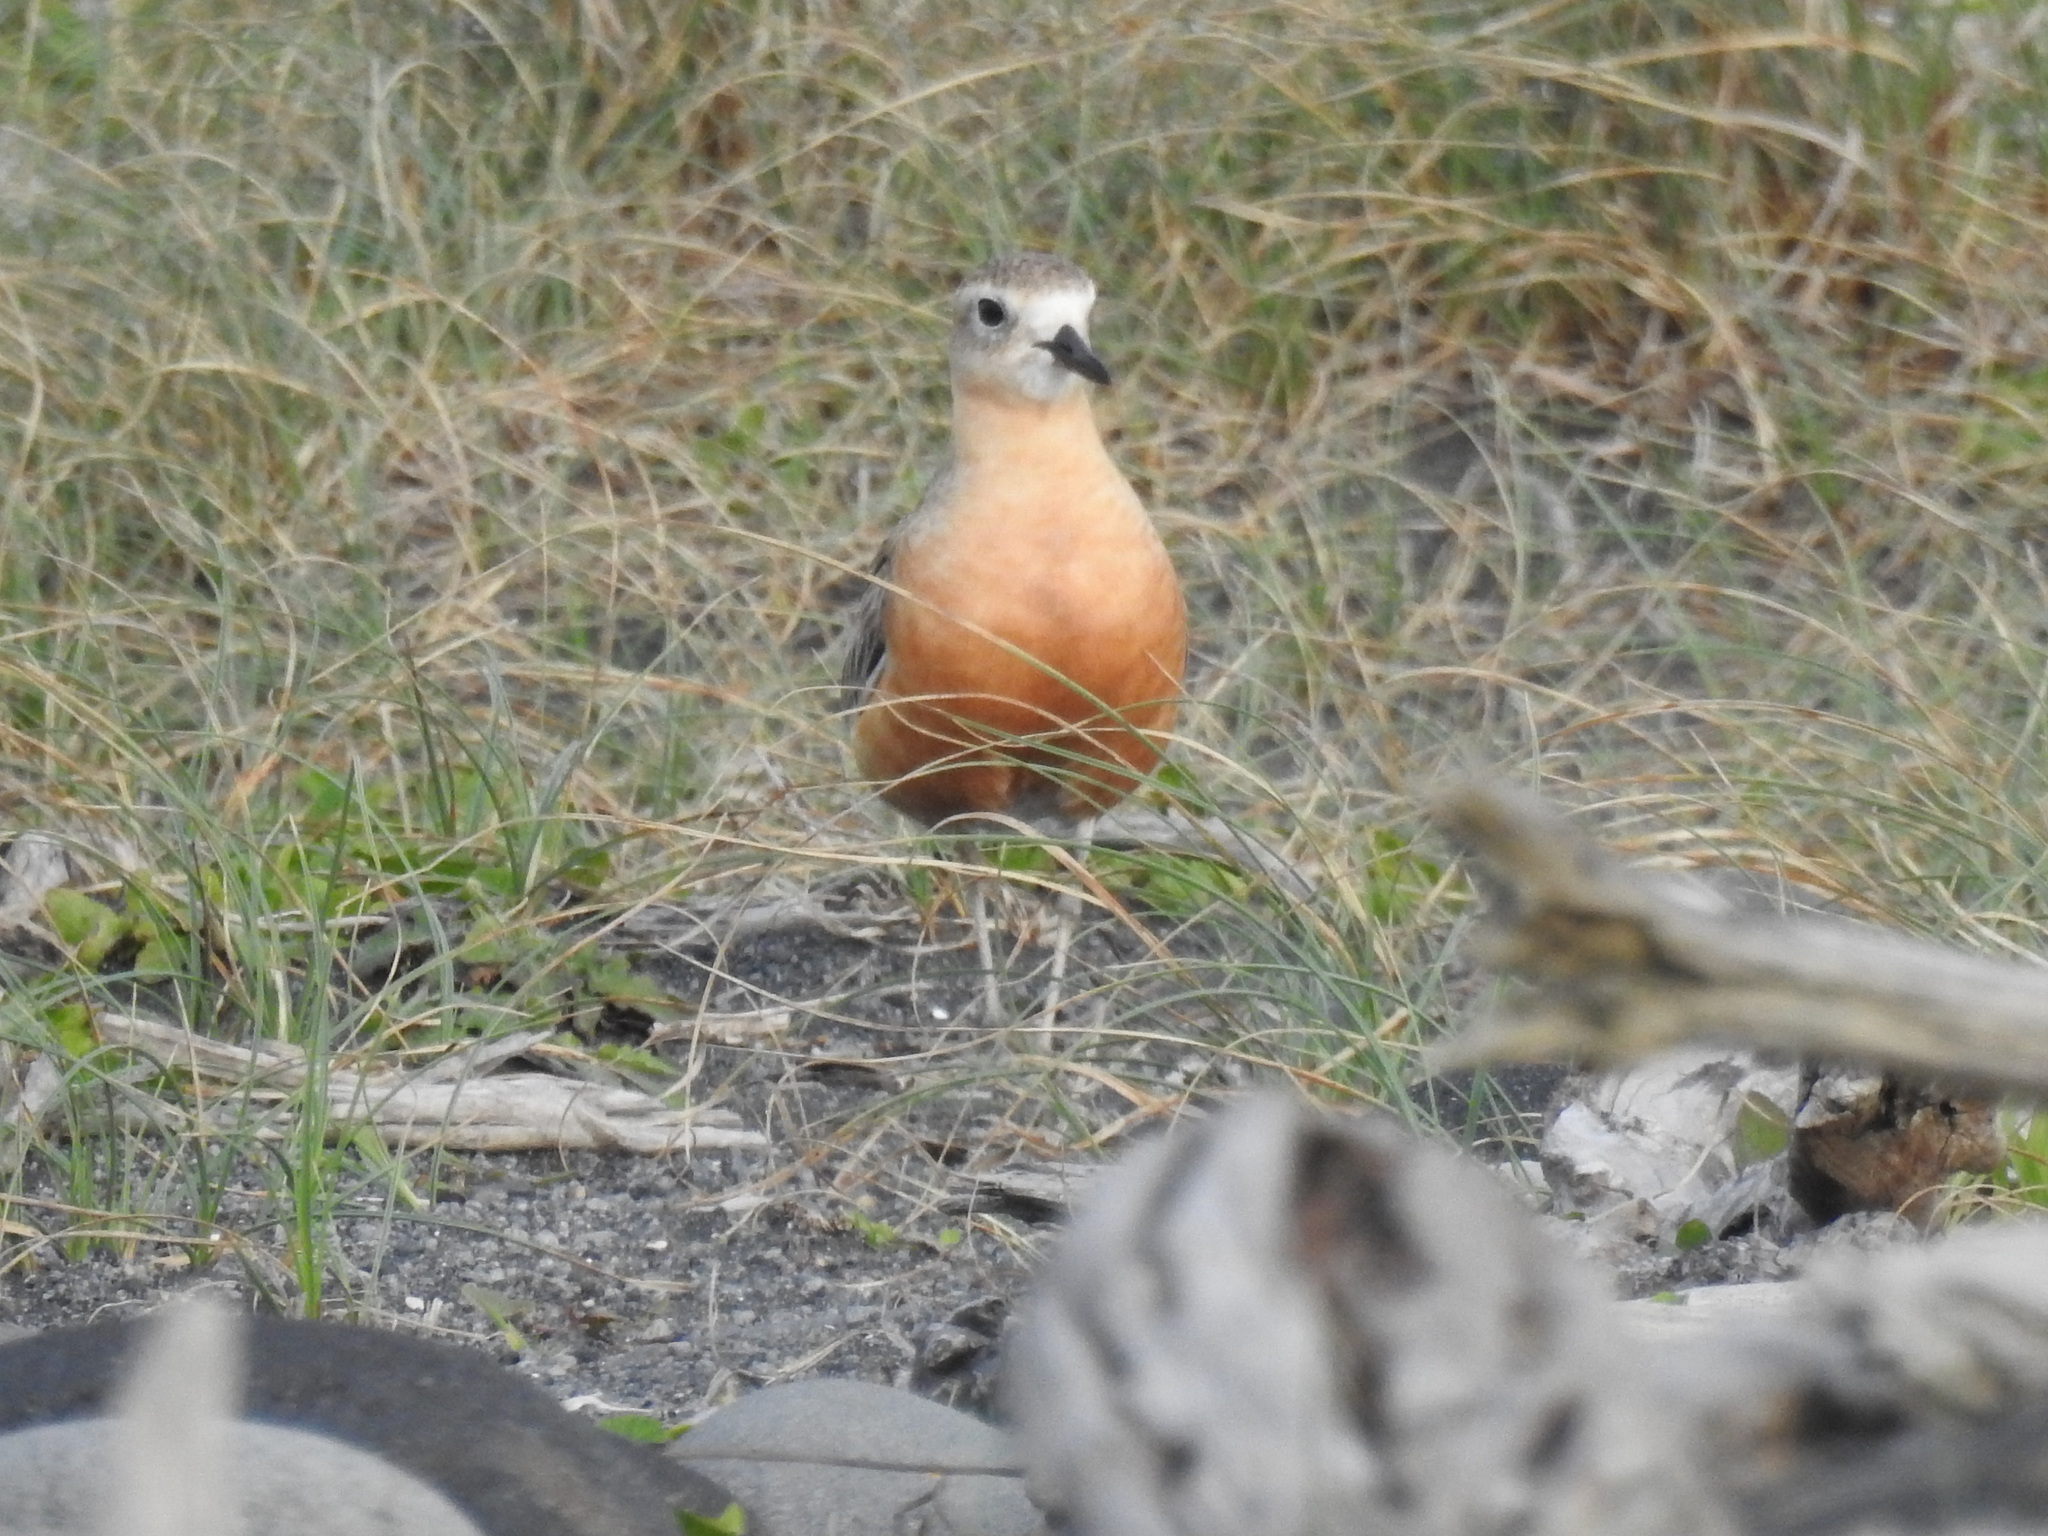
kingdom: Animalia
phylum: Chordata
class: Aves
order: Charadriiformes
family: Charadriidae
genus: Anarhynchus
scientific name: Anarhynchus
